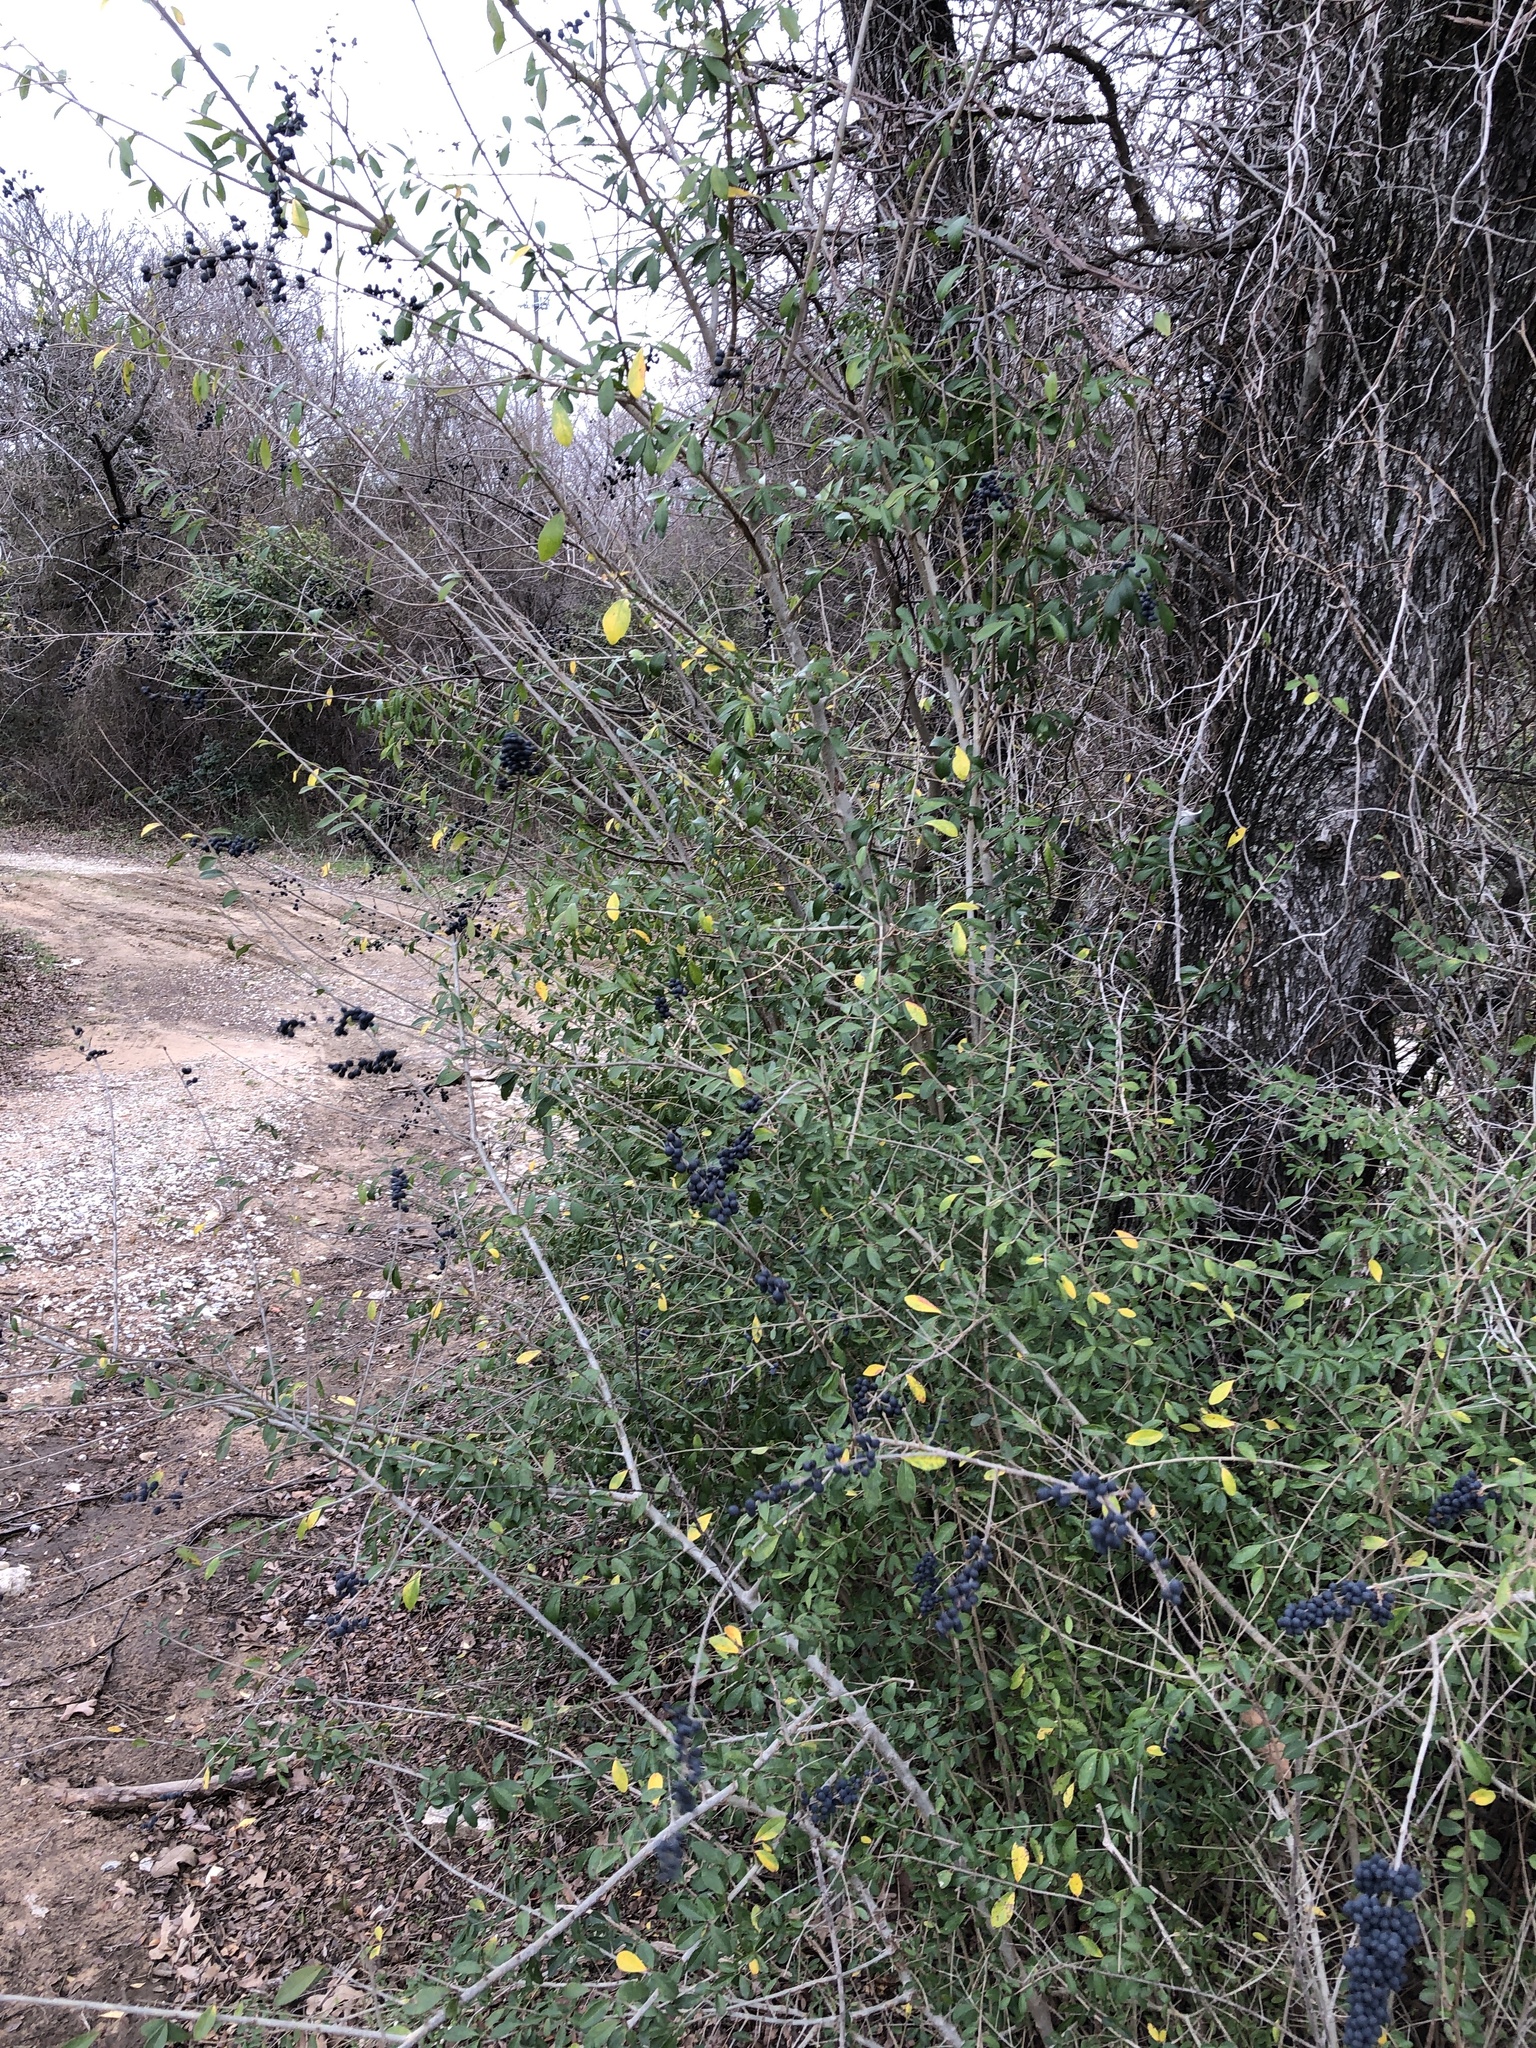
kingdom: Plantae
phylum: Tracheophyta
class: Magnoliopsida
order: Lamiales
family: Oleaceae
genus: Ligustrum
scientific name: Ligustrum quihoui
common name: Waxyleaf privet
